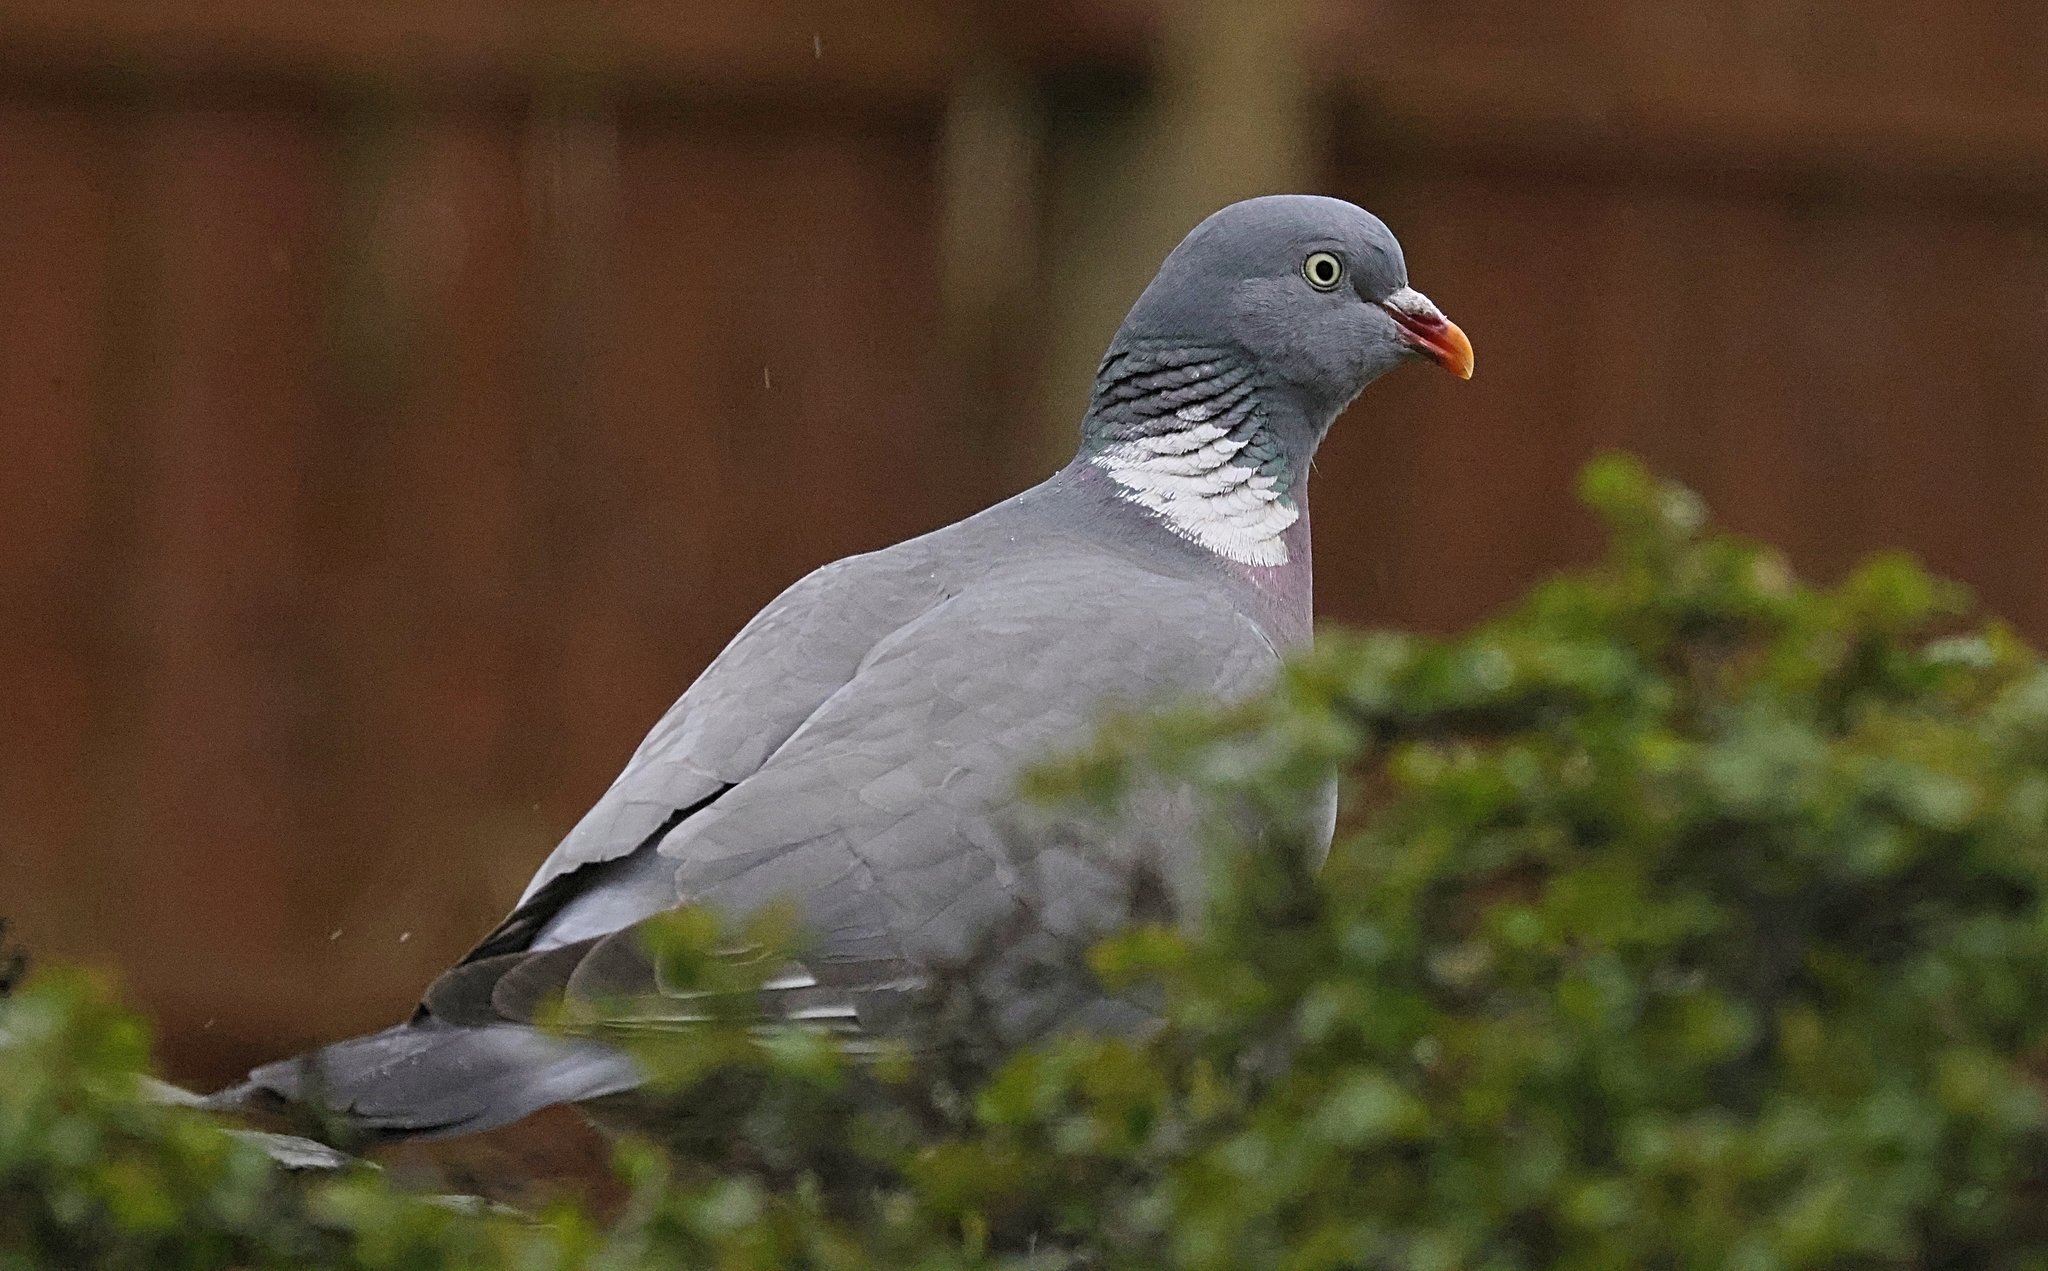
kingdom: Animalia
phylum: Chordata
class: Aves
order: Columbiformes
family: Columbidae
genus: Columba
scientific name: Columba palumbus
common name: Common wood pigeon
